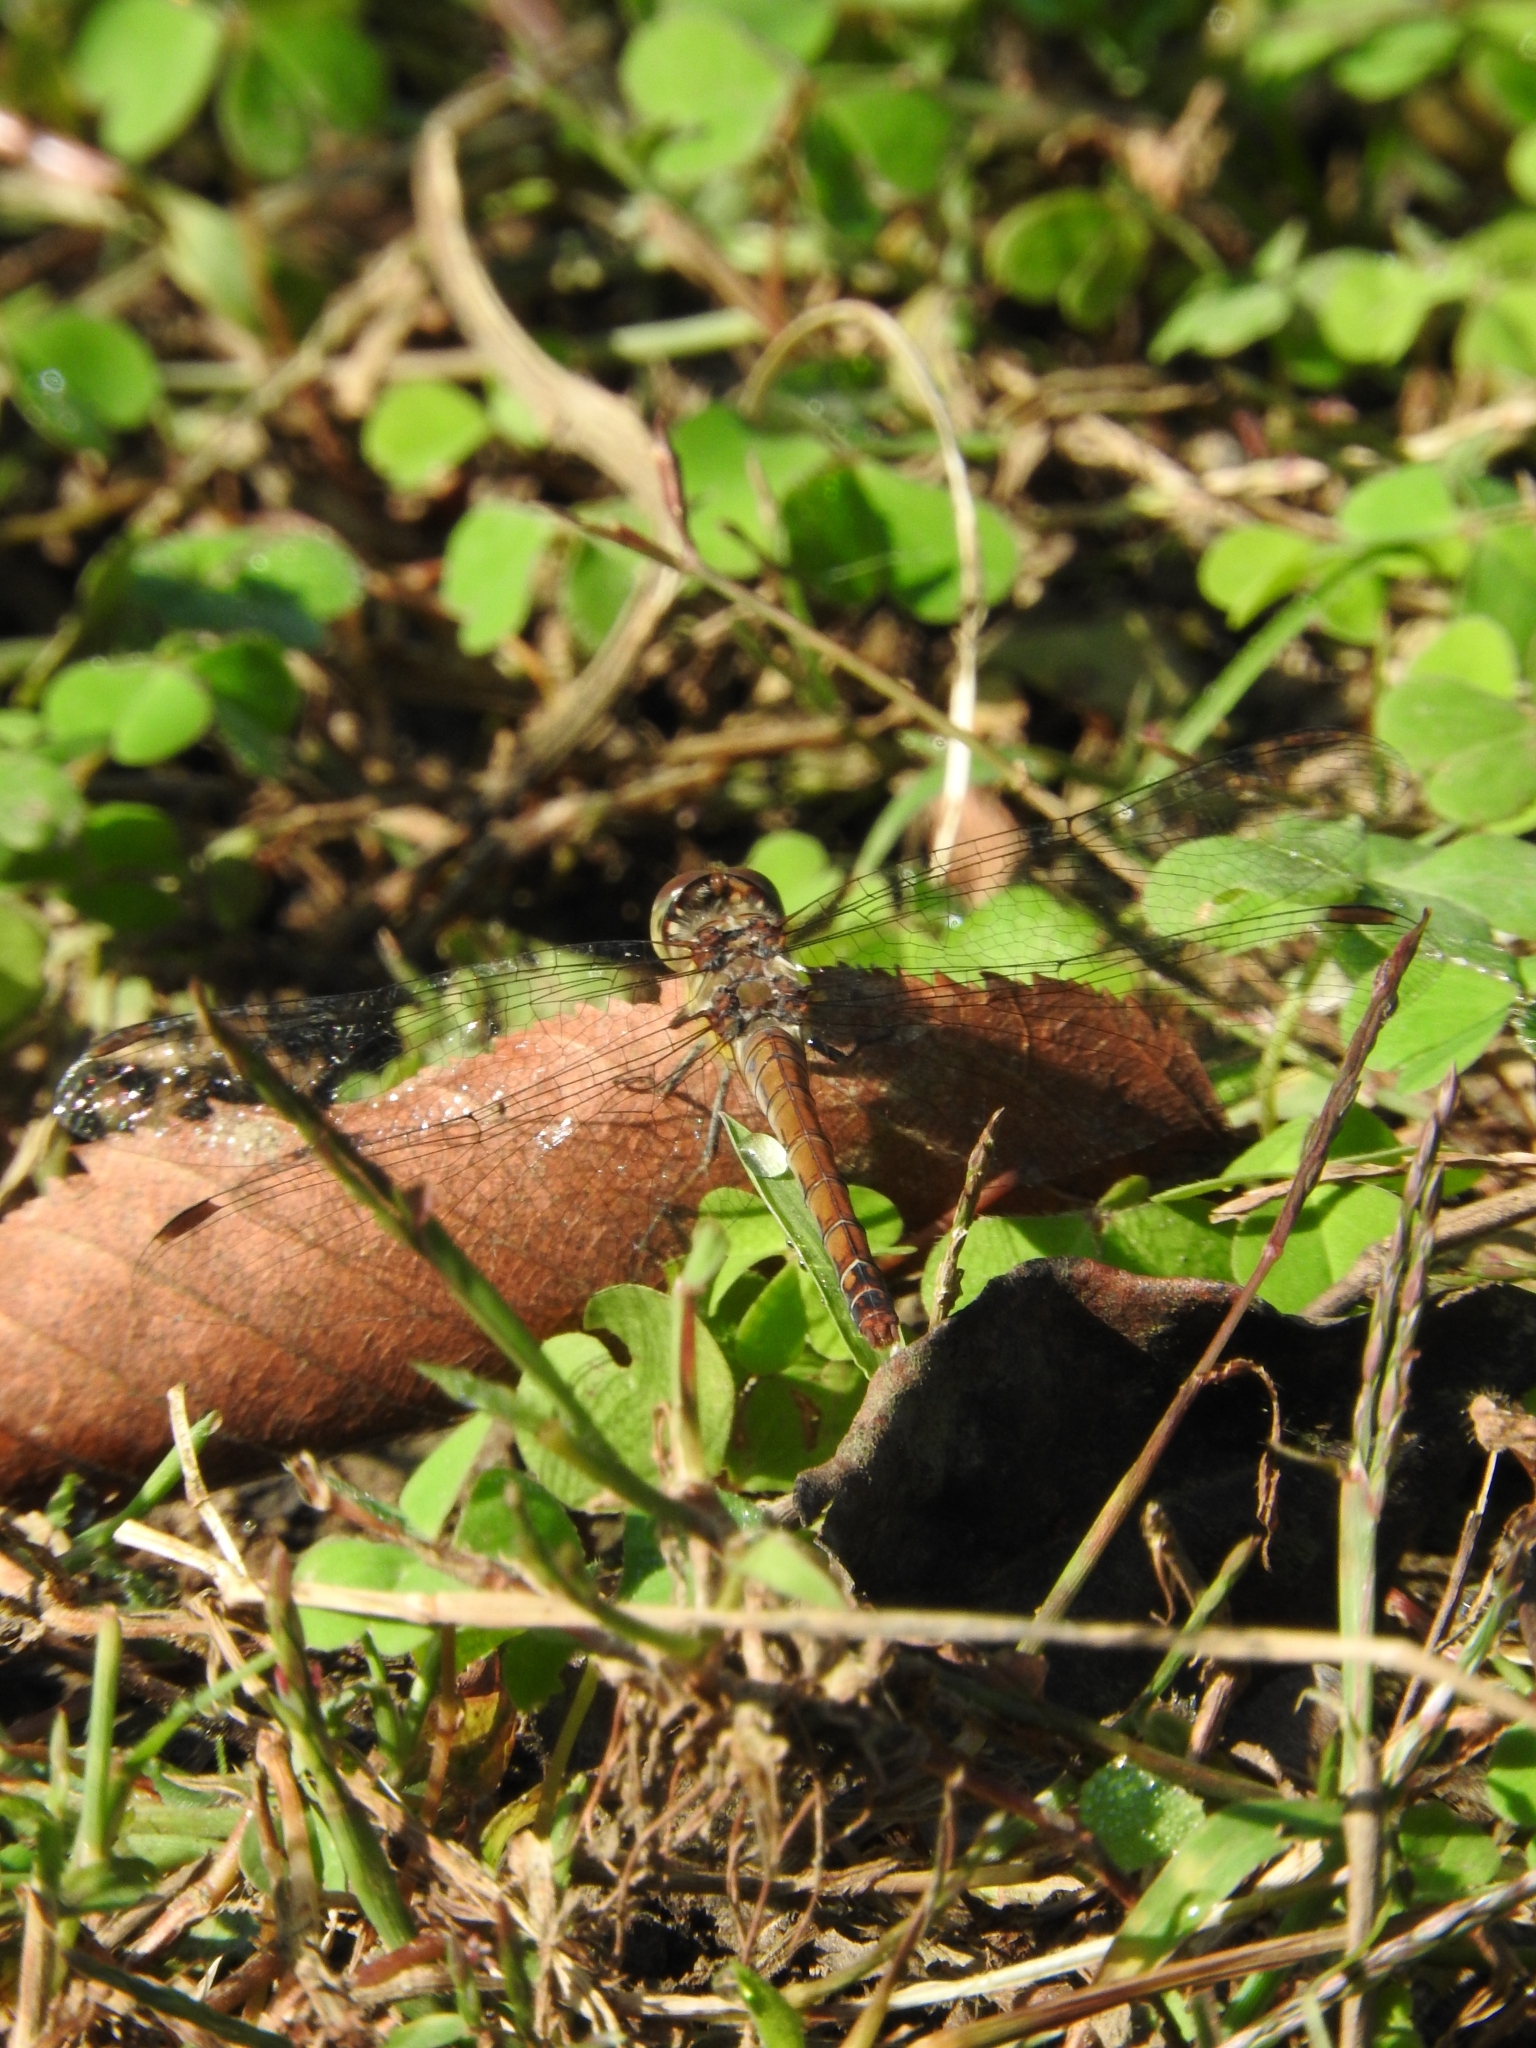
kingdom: Animalia
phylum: Arthropoda
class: Insecta
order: Odonata
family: Libellulidae
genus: Sympetrum
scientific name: Sympetrum striolatum
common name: Common darter
